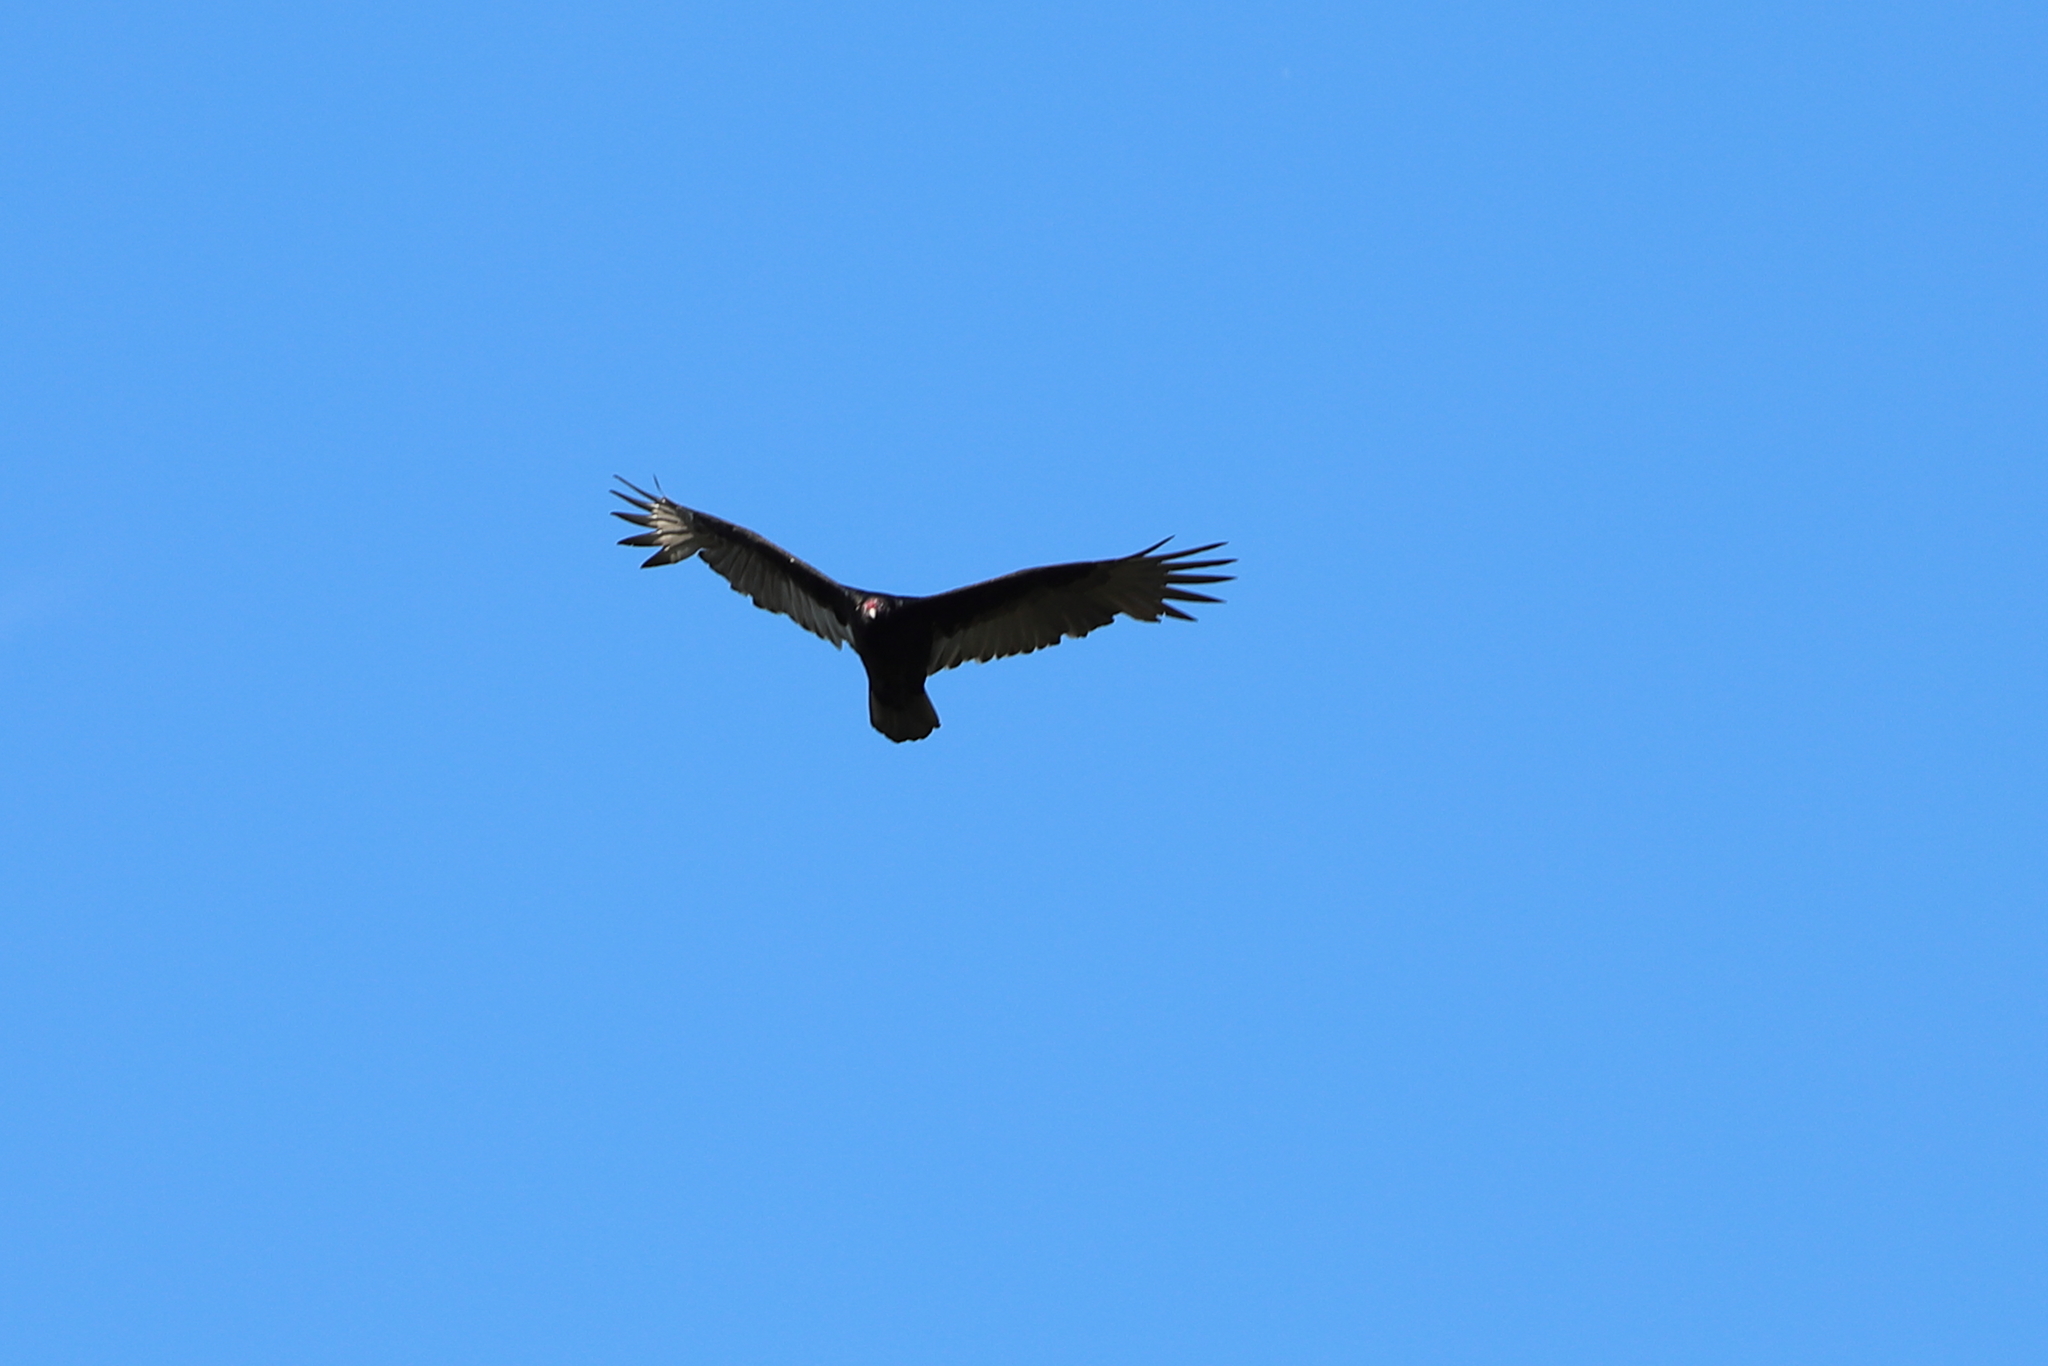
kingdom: Animalia
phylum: Chordata
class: Aves
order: Accipitriformes
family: Cathartidae
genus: Cathartes
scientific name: Cathartes aura
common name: Turkey vulture
